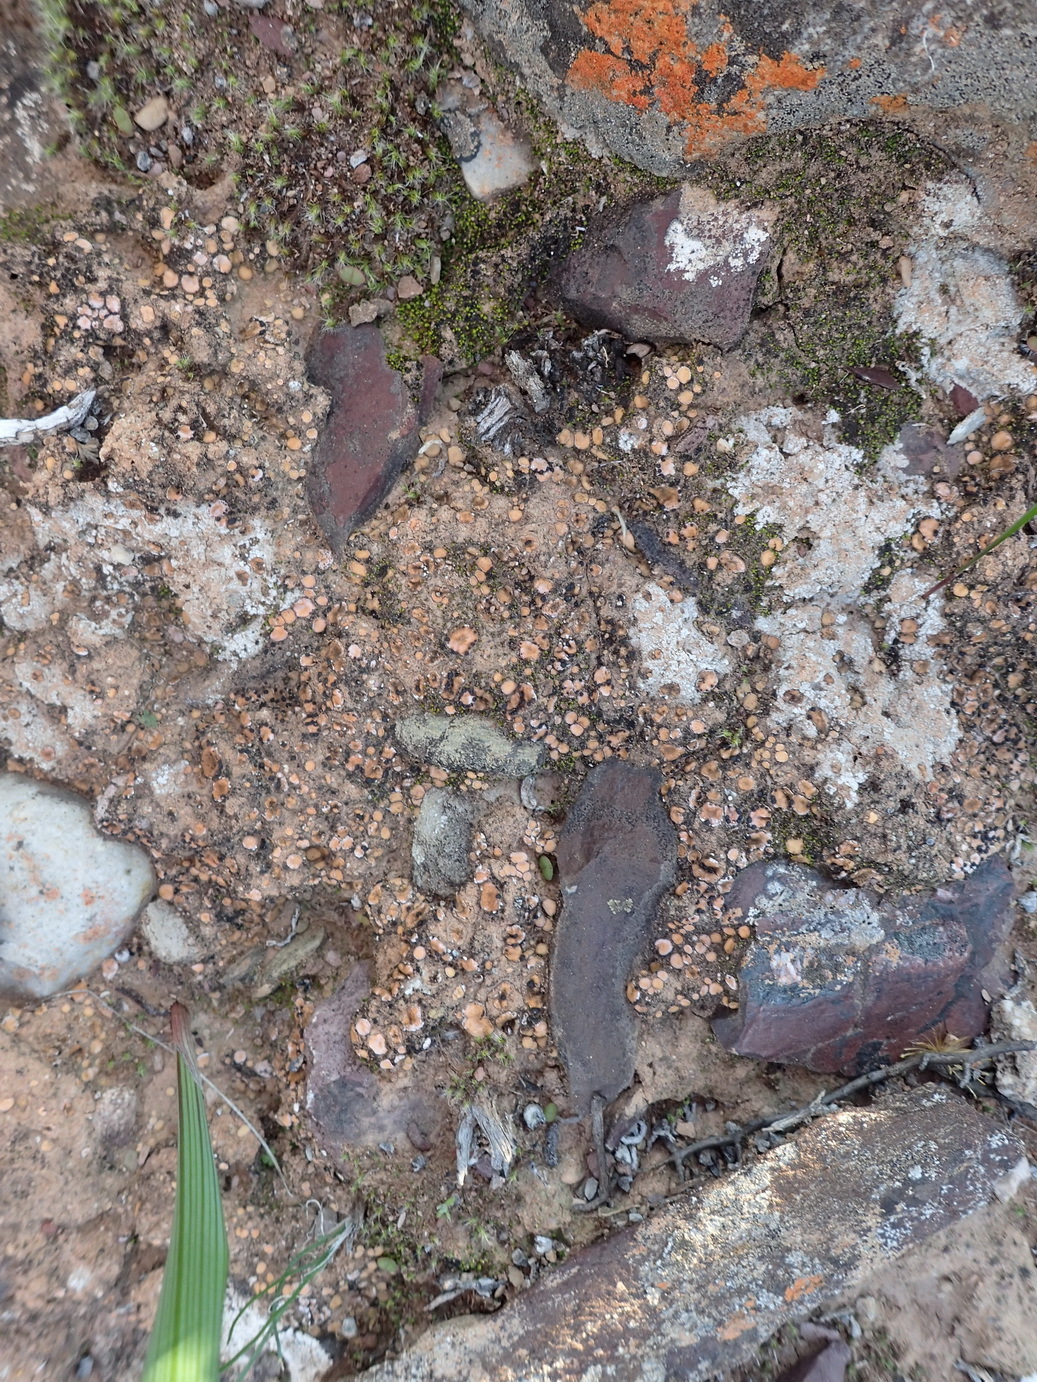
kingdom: Fungi
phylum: Ascomycota
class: Lecanoromycetes
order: Lecanorales
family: Psoraceae
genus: Psora
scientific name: Psora crenata
